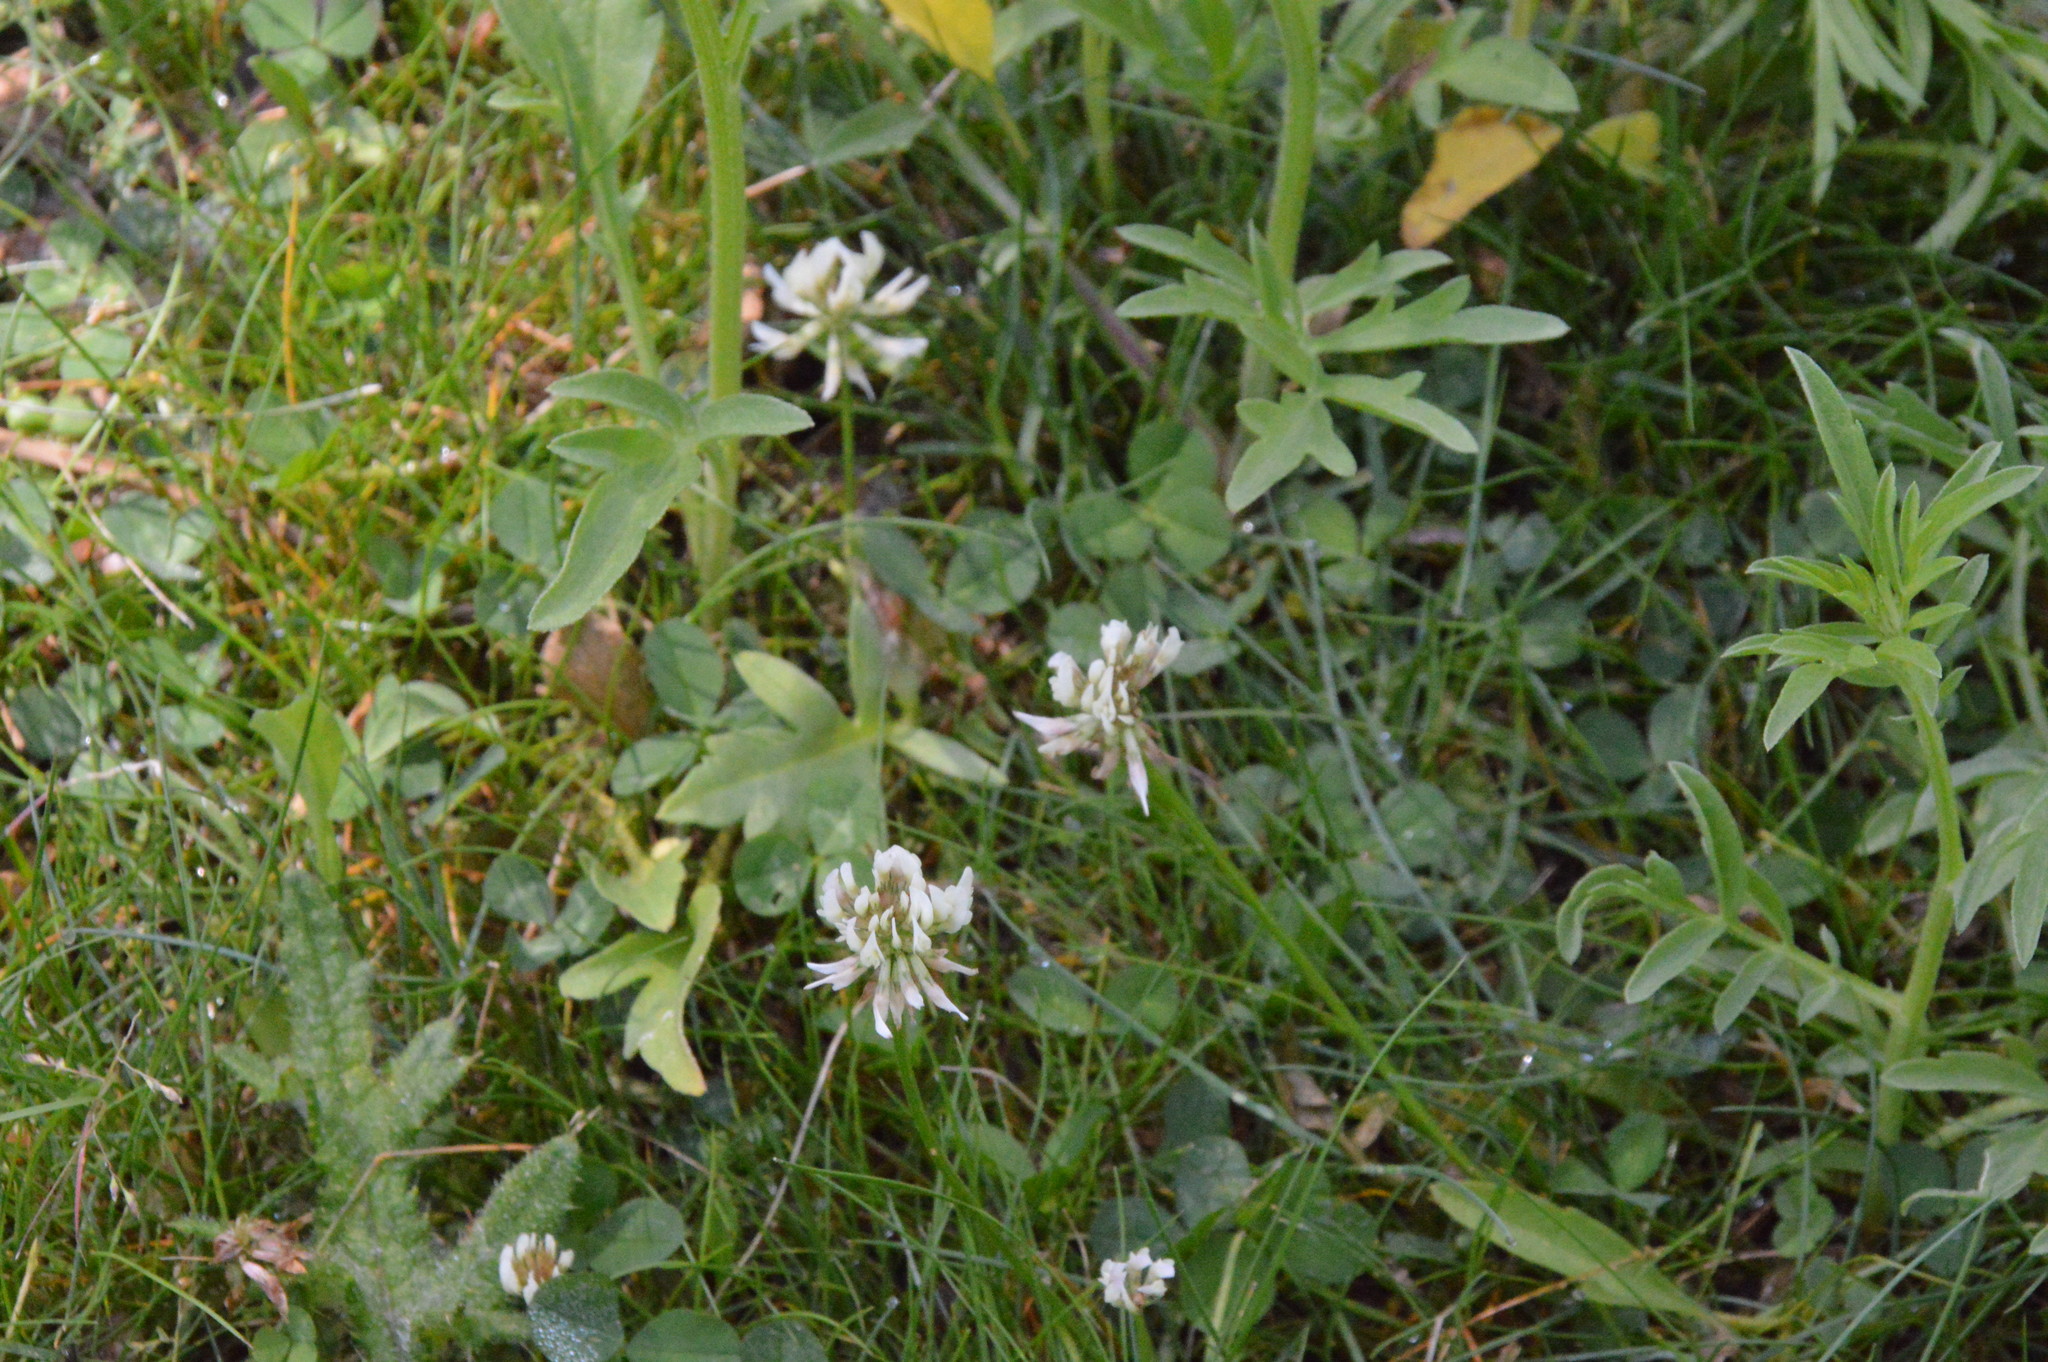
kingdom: Plantae
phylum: Tracheophyta
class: Magnoliopsida
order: Fabales
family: Fabaceae
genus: Trifolium
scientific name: Trifolium repens
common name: White clover
